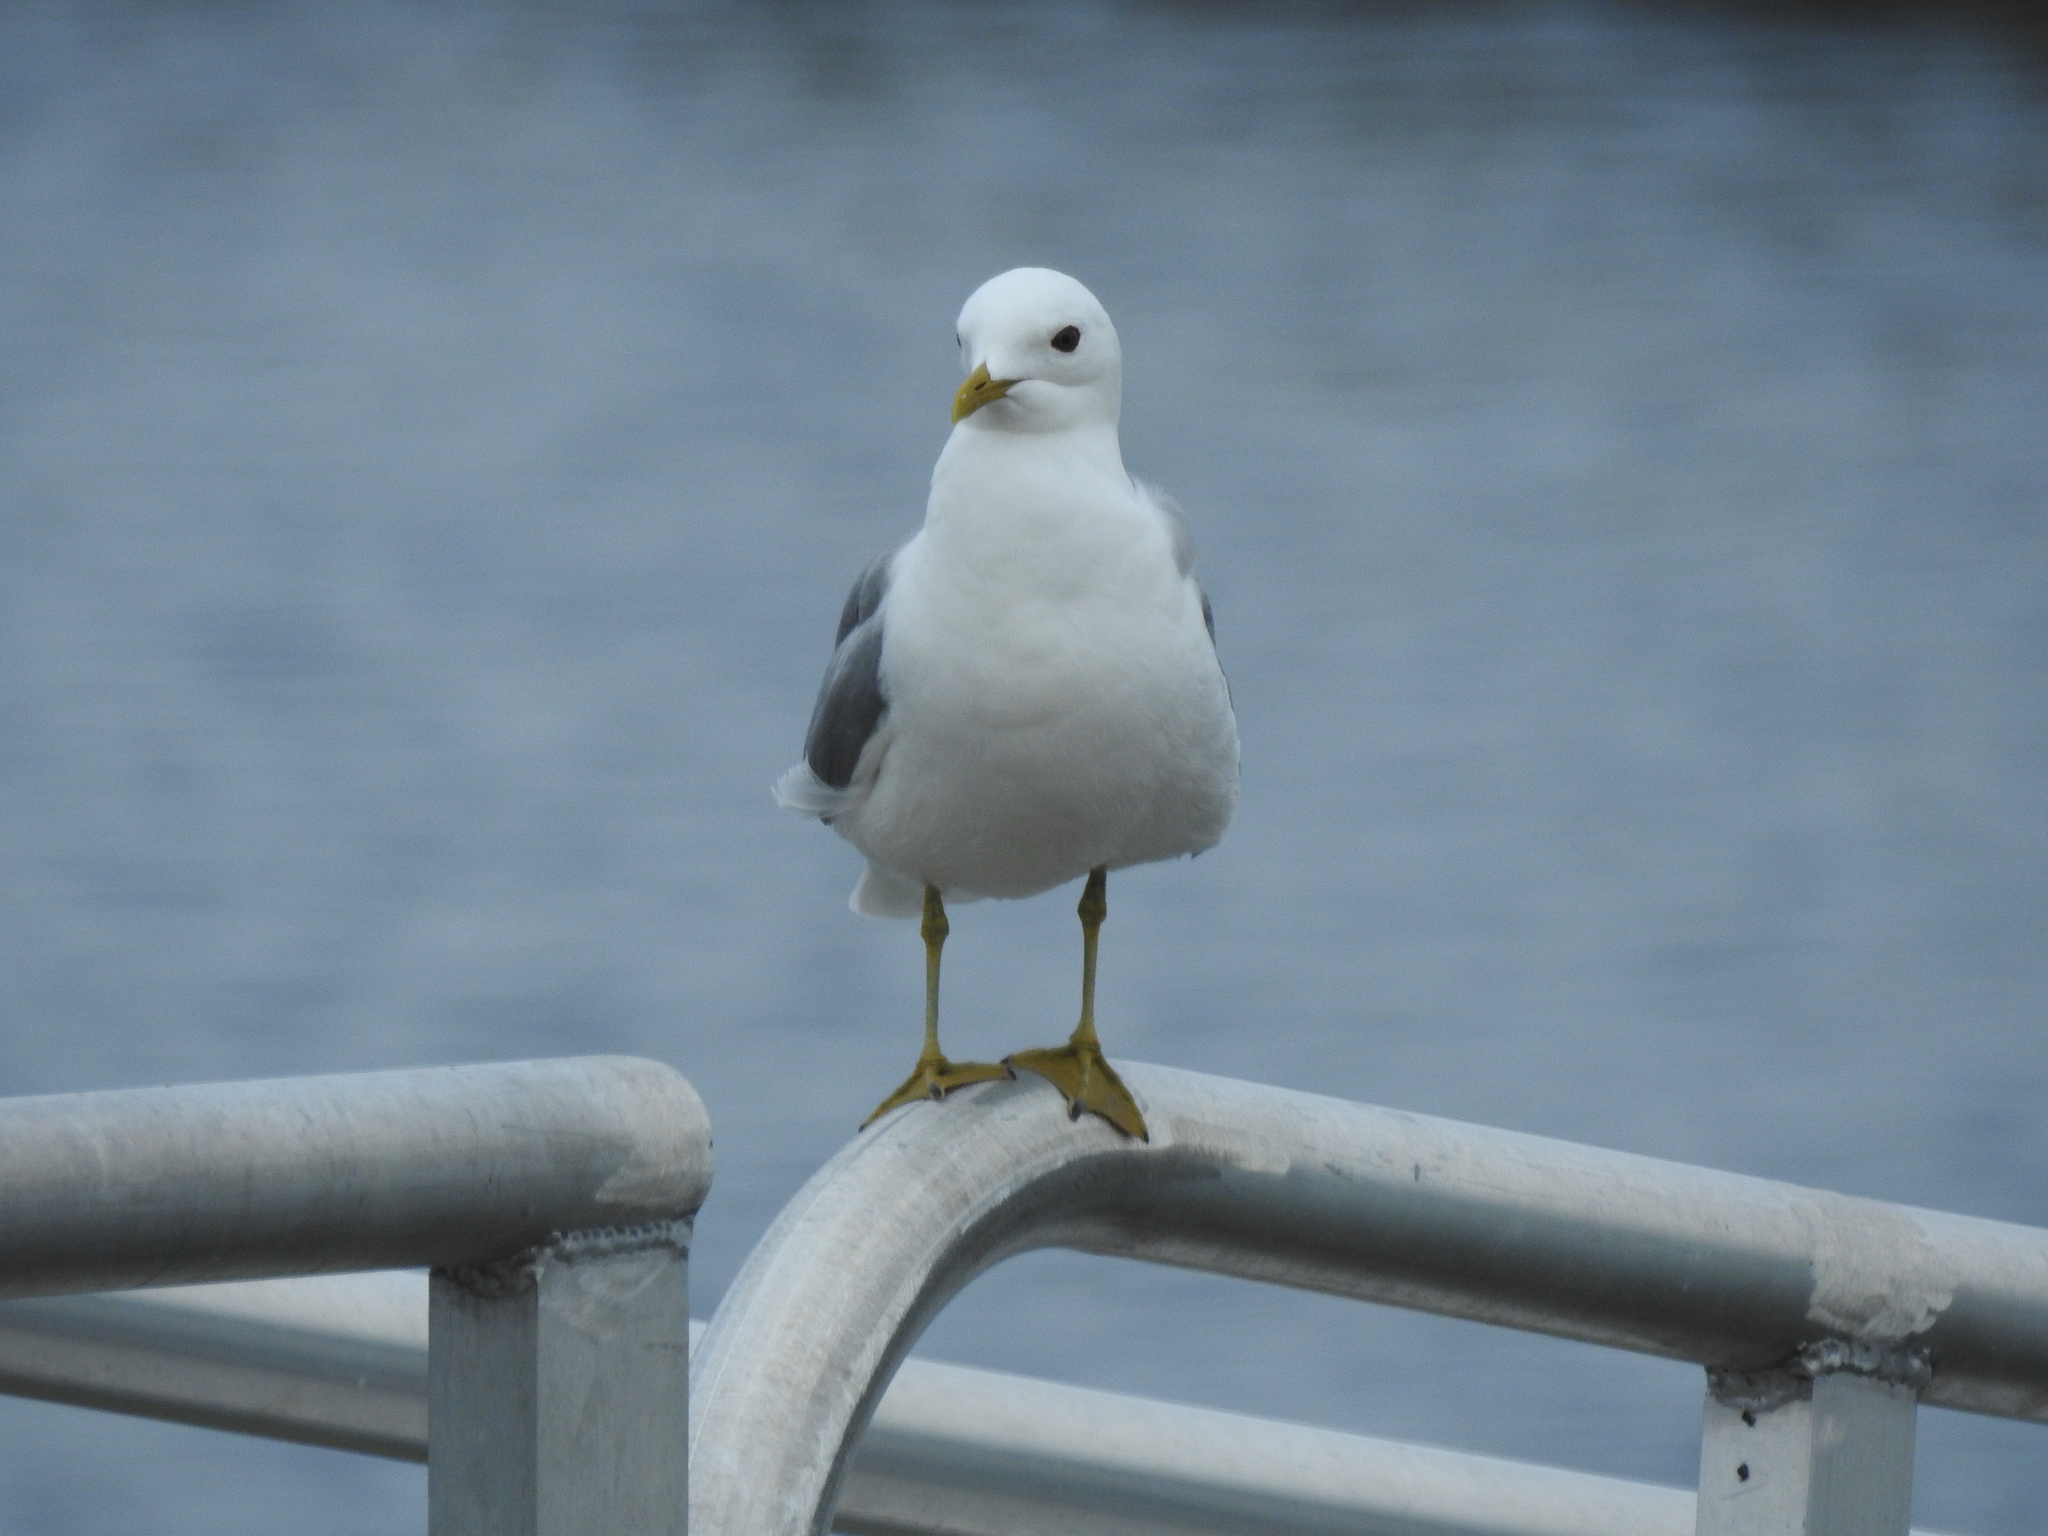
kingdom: Animalia
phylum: Chordata
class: Aves
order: Charadriiformes
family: Laridae
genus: Larus
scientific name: Larus canus
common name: Mew gull
